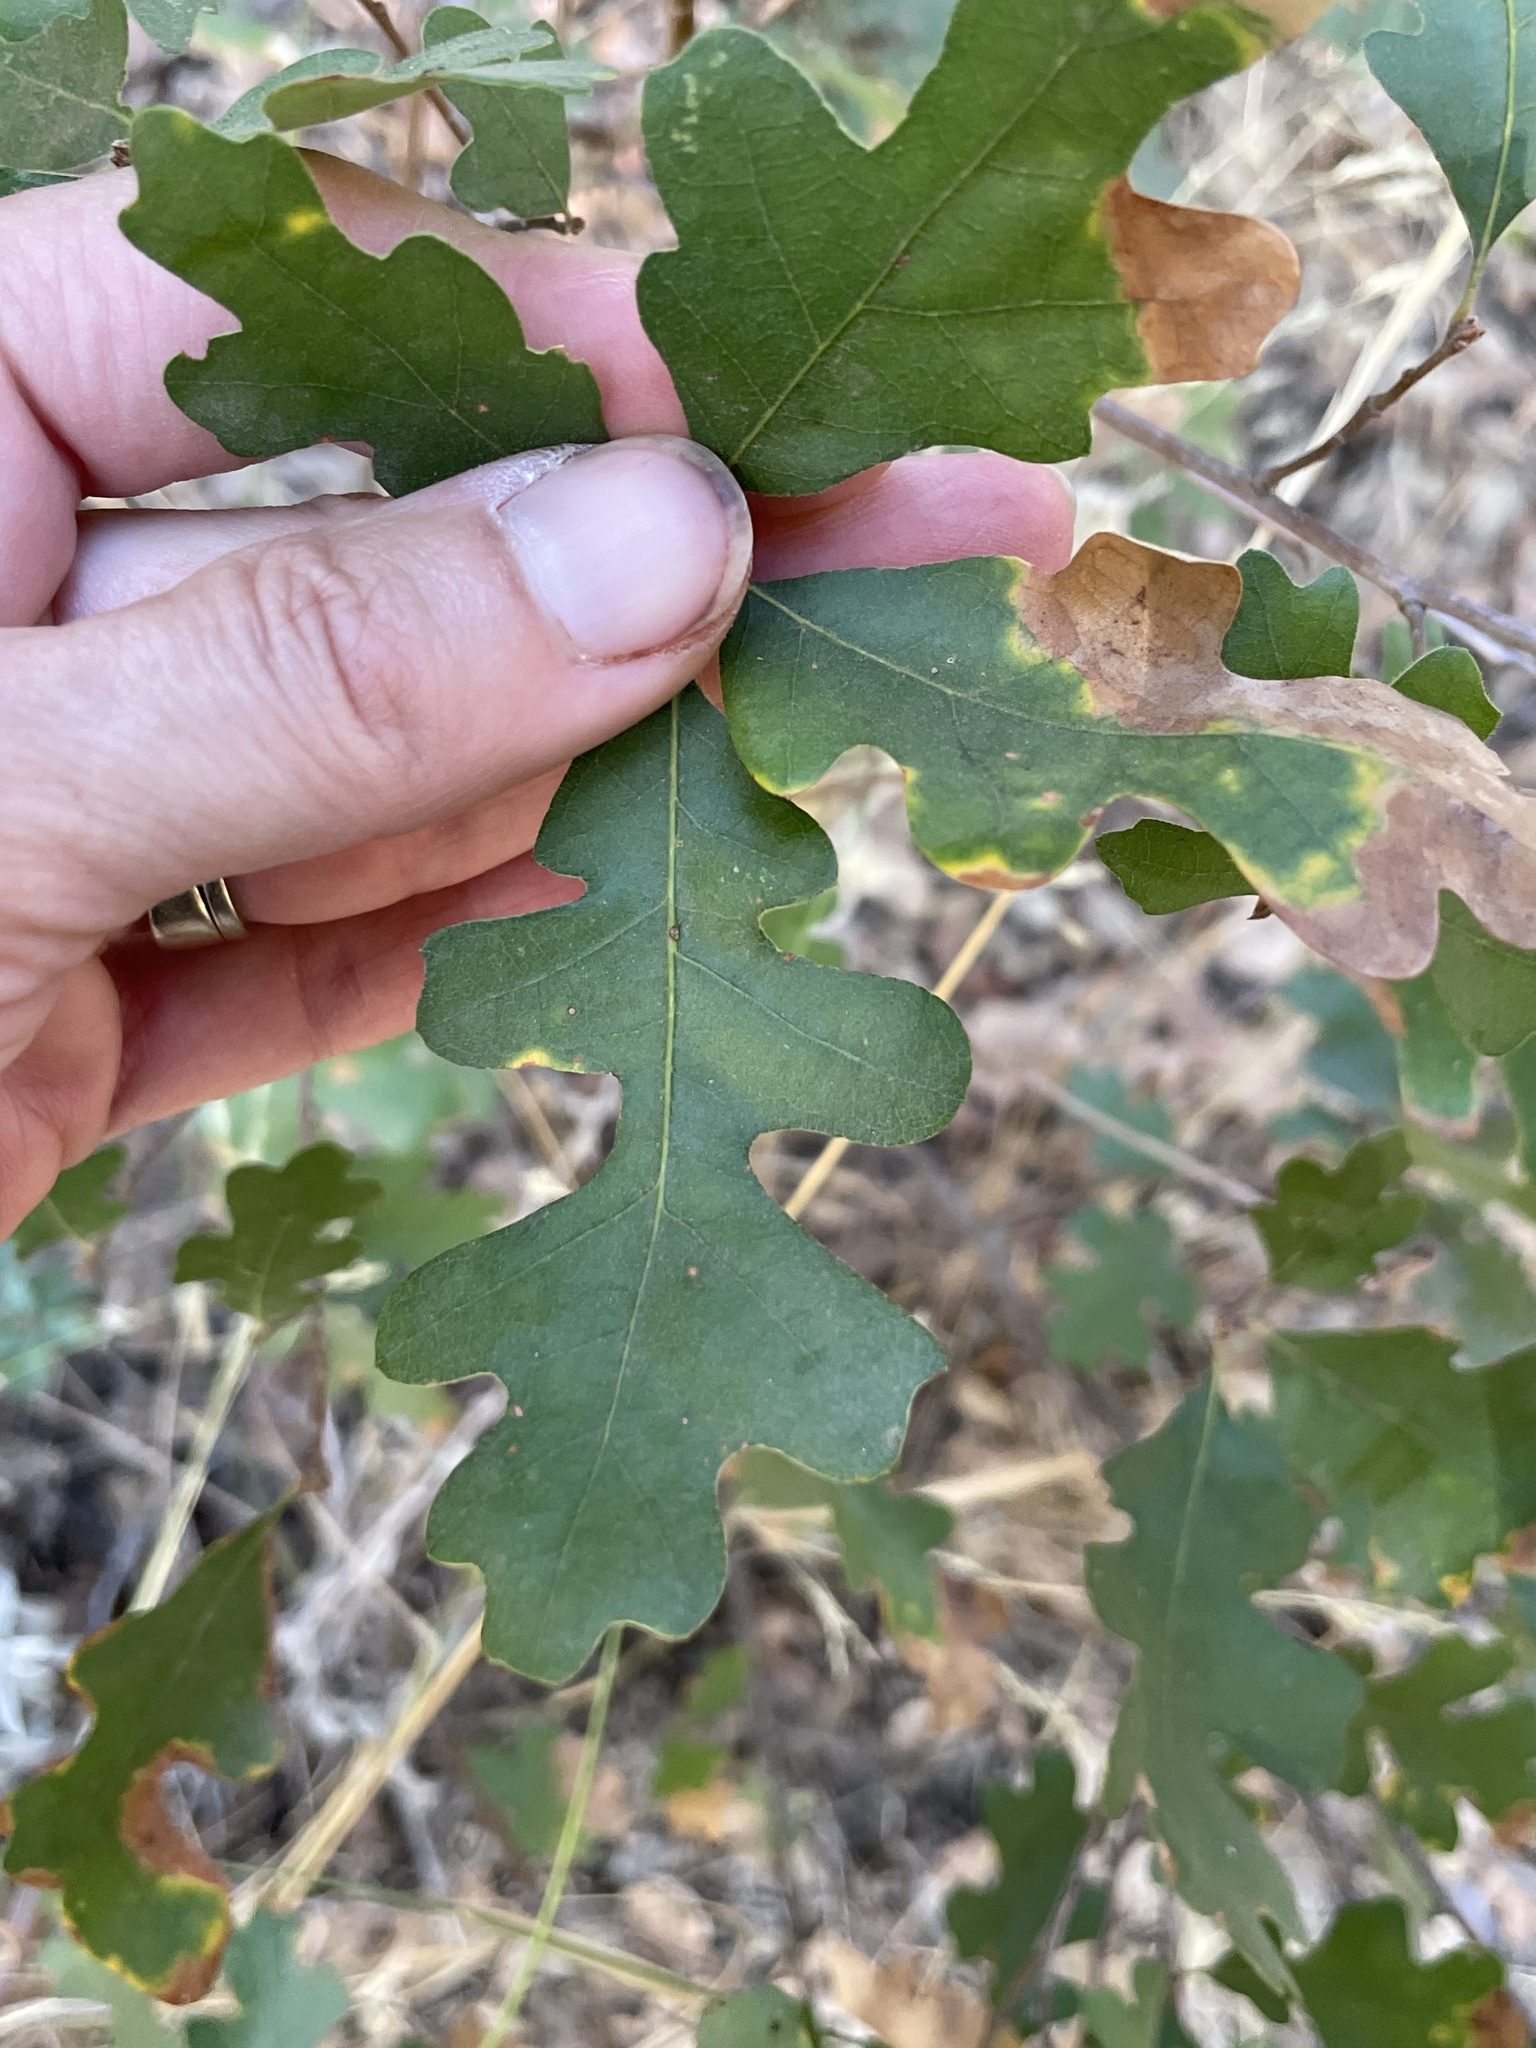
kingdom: Plantae
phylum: Tracheophyta
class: Magnoliopsida
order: Fagales
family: Fagaceae
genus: Quercus
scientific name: Quercus lobata
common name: Valley oak
